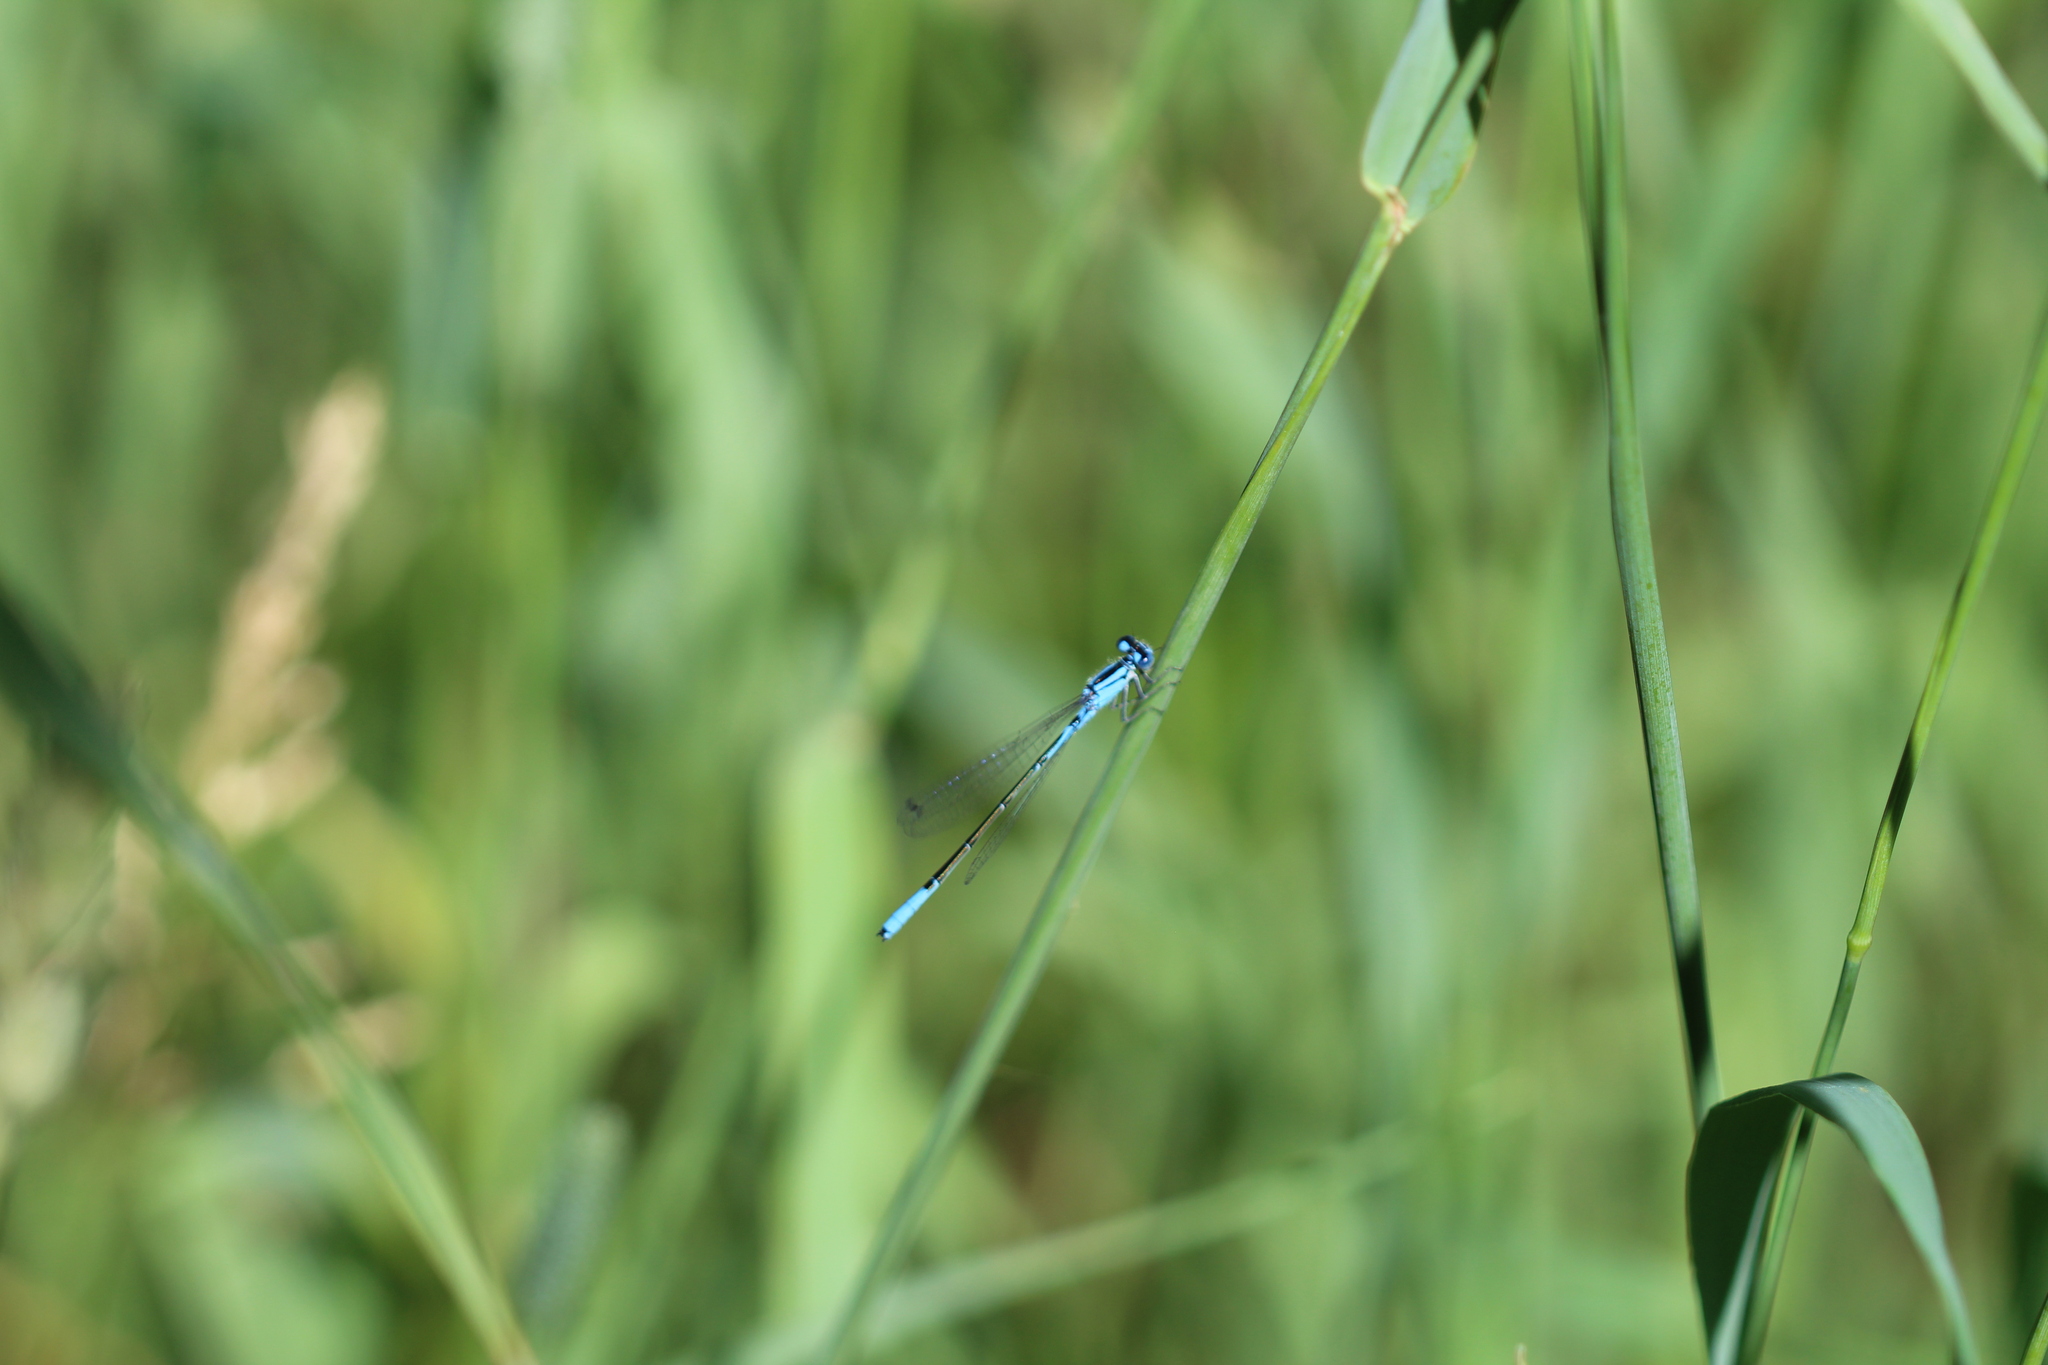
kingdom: Animalia
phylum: Arthropoda
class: Insecta
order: Odonata
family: Coenagrionidae
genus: Enallagma
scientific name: Enallagma aspersum
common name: Azure bluet
